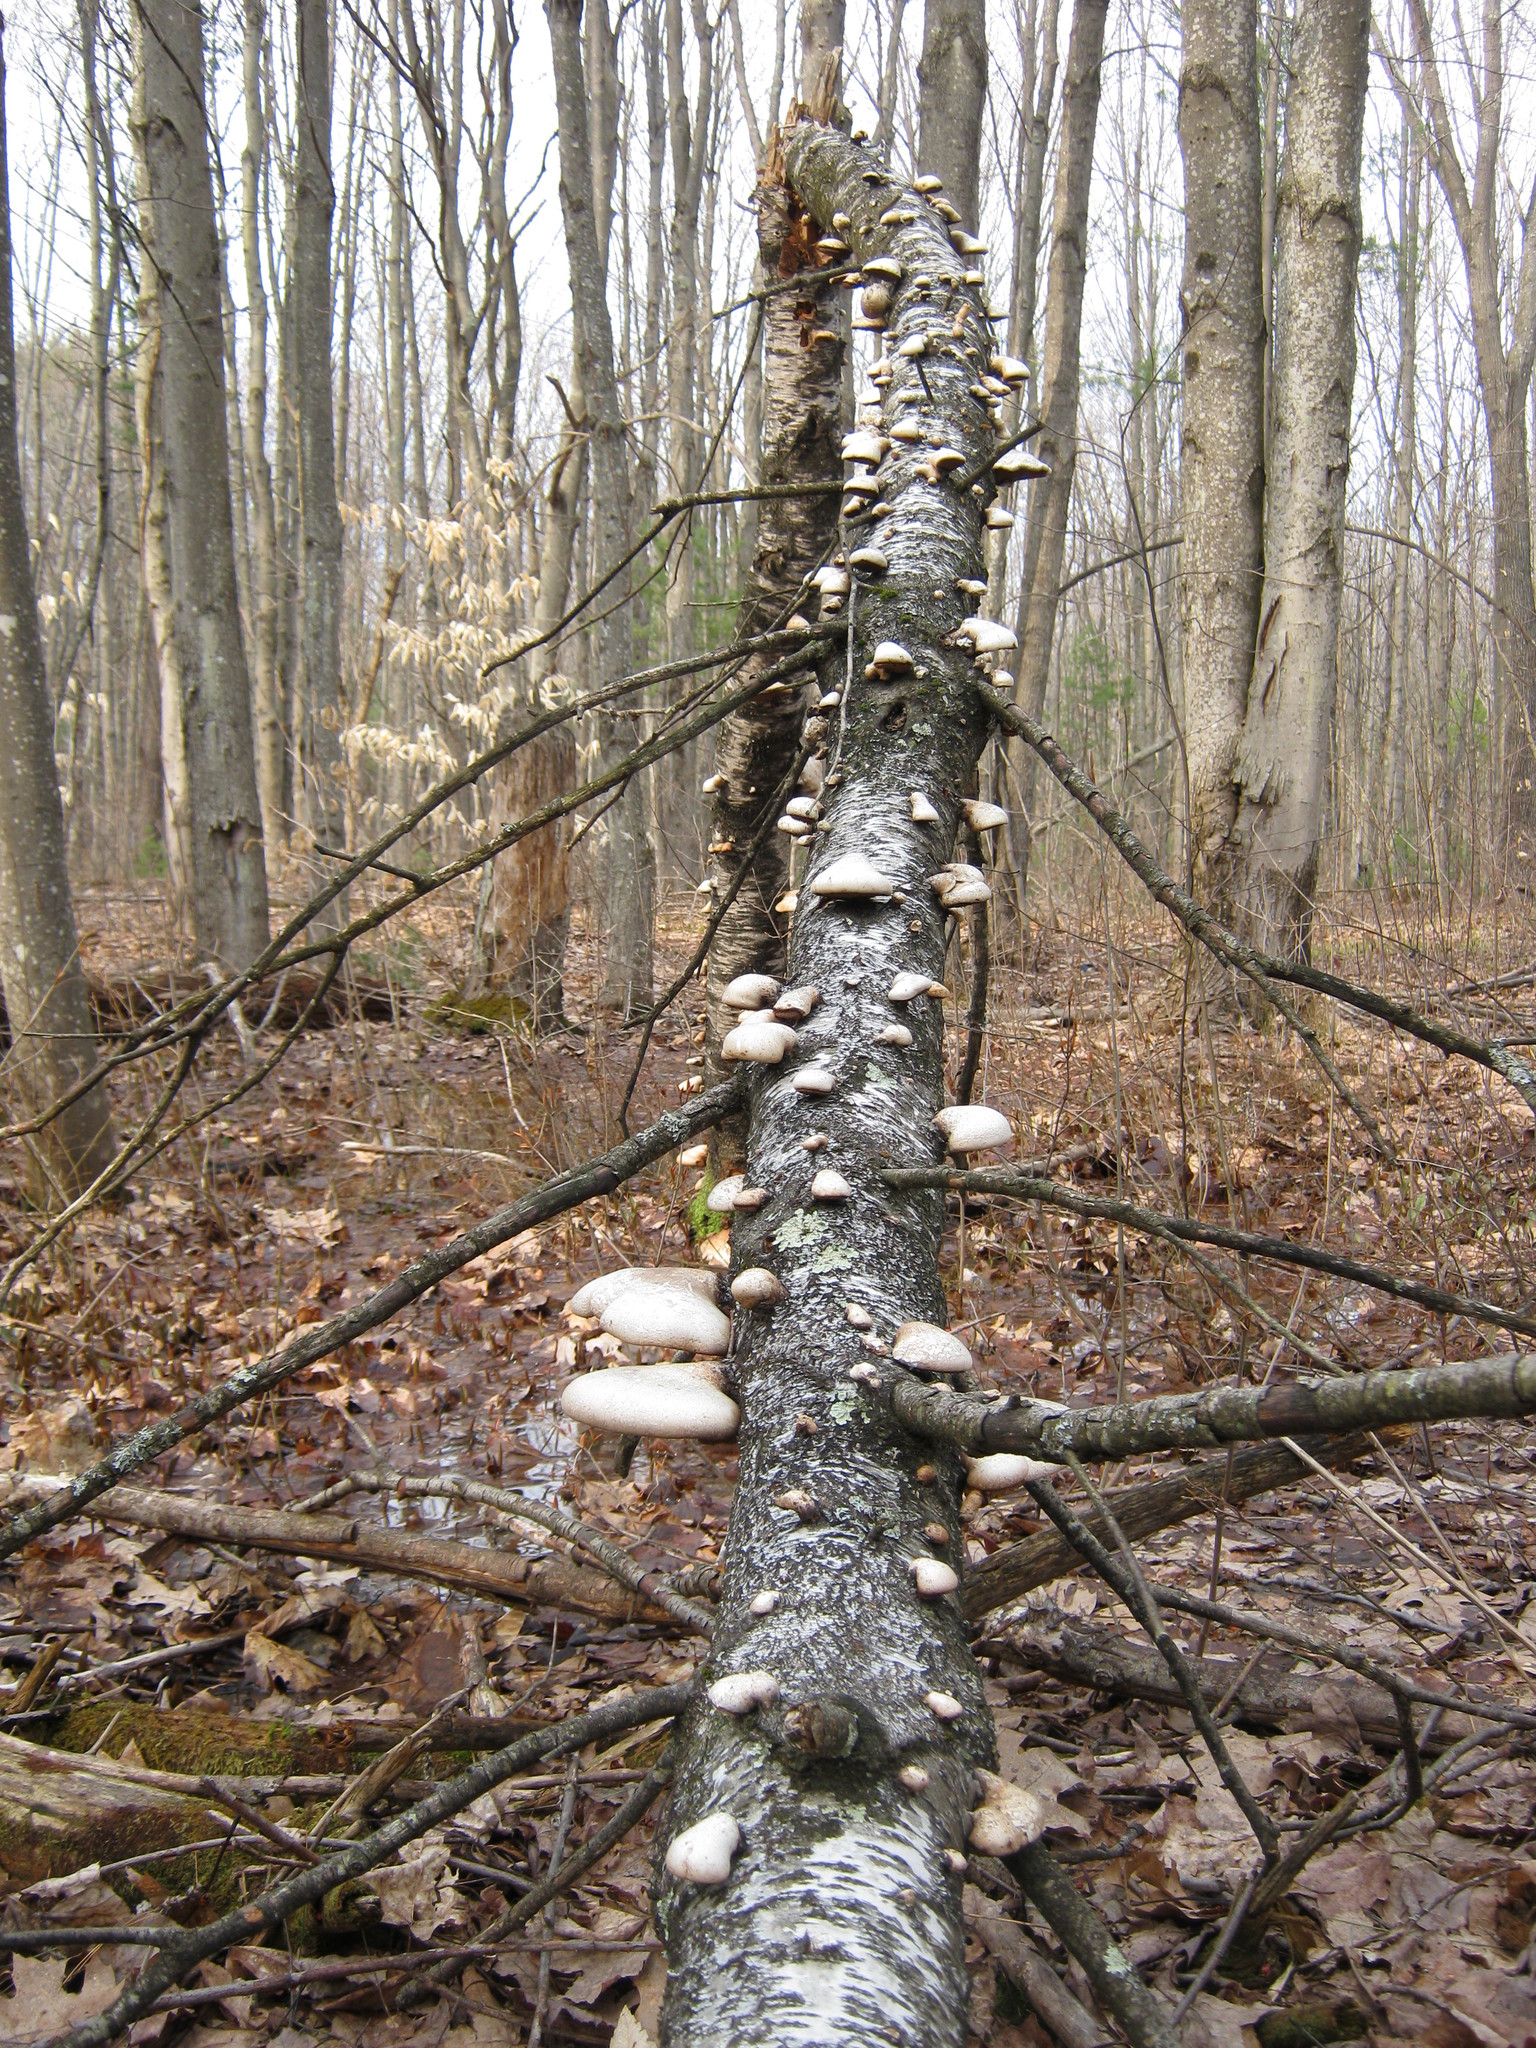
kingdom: Fungi
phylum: Basidiomycota
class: Agaricomycetes
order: Polyporales
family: Fomitopsidaceae
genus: Fomitopsis
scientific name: Fomitopsis betulina
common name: Birch polypore
